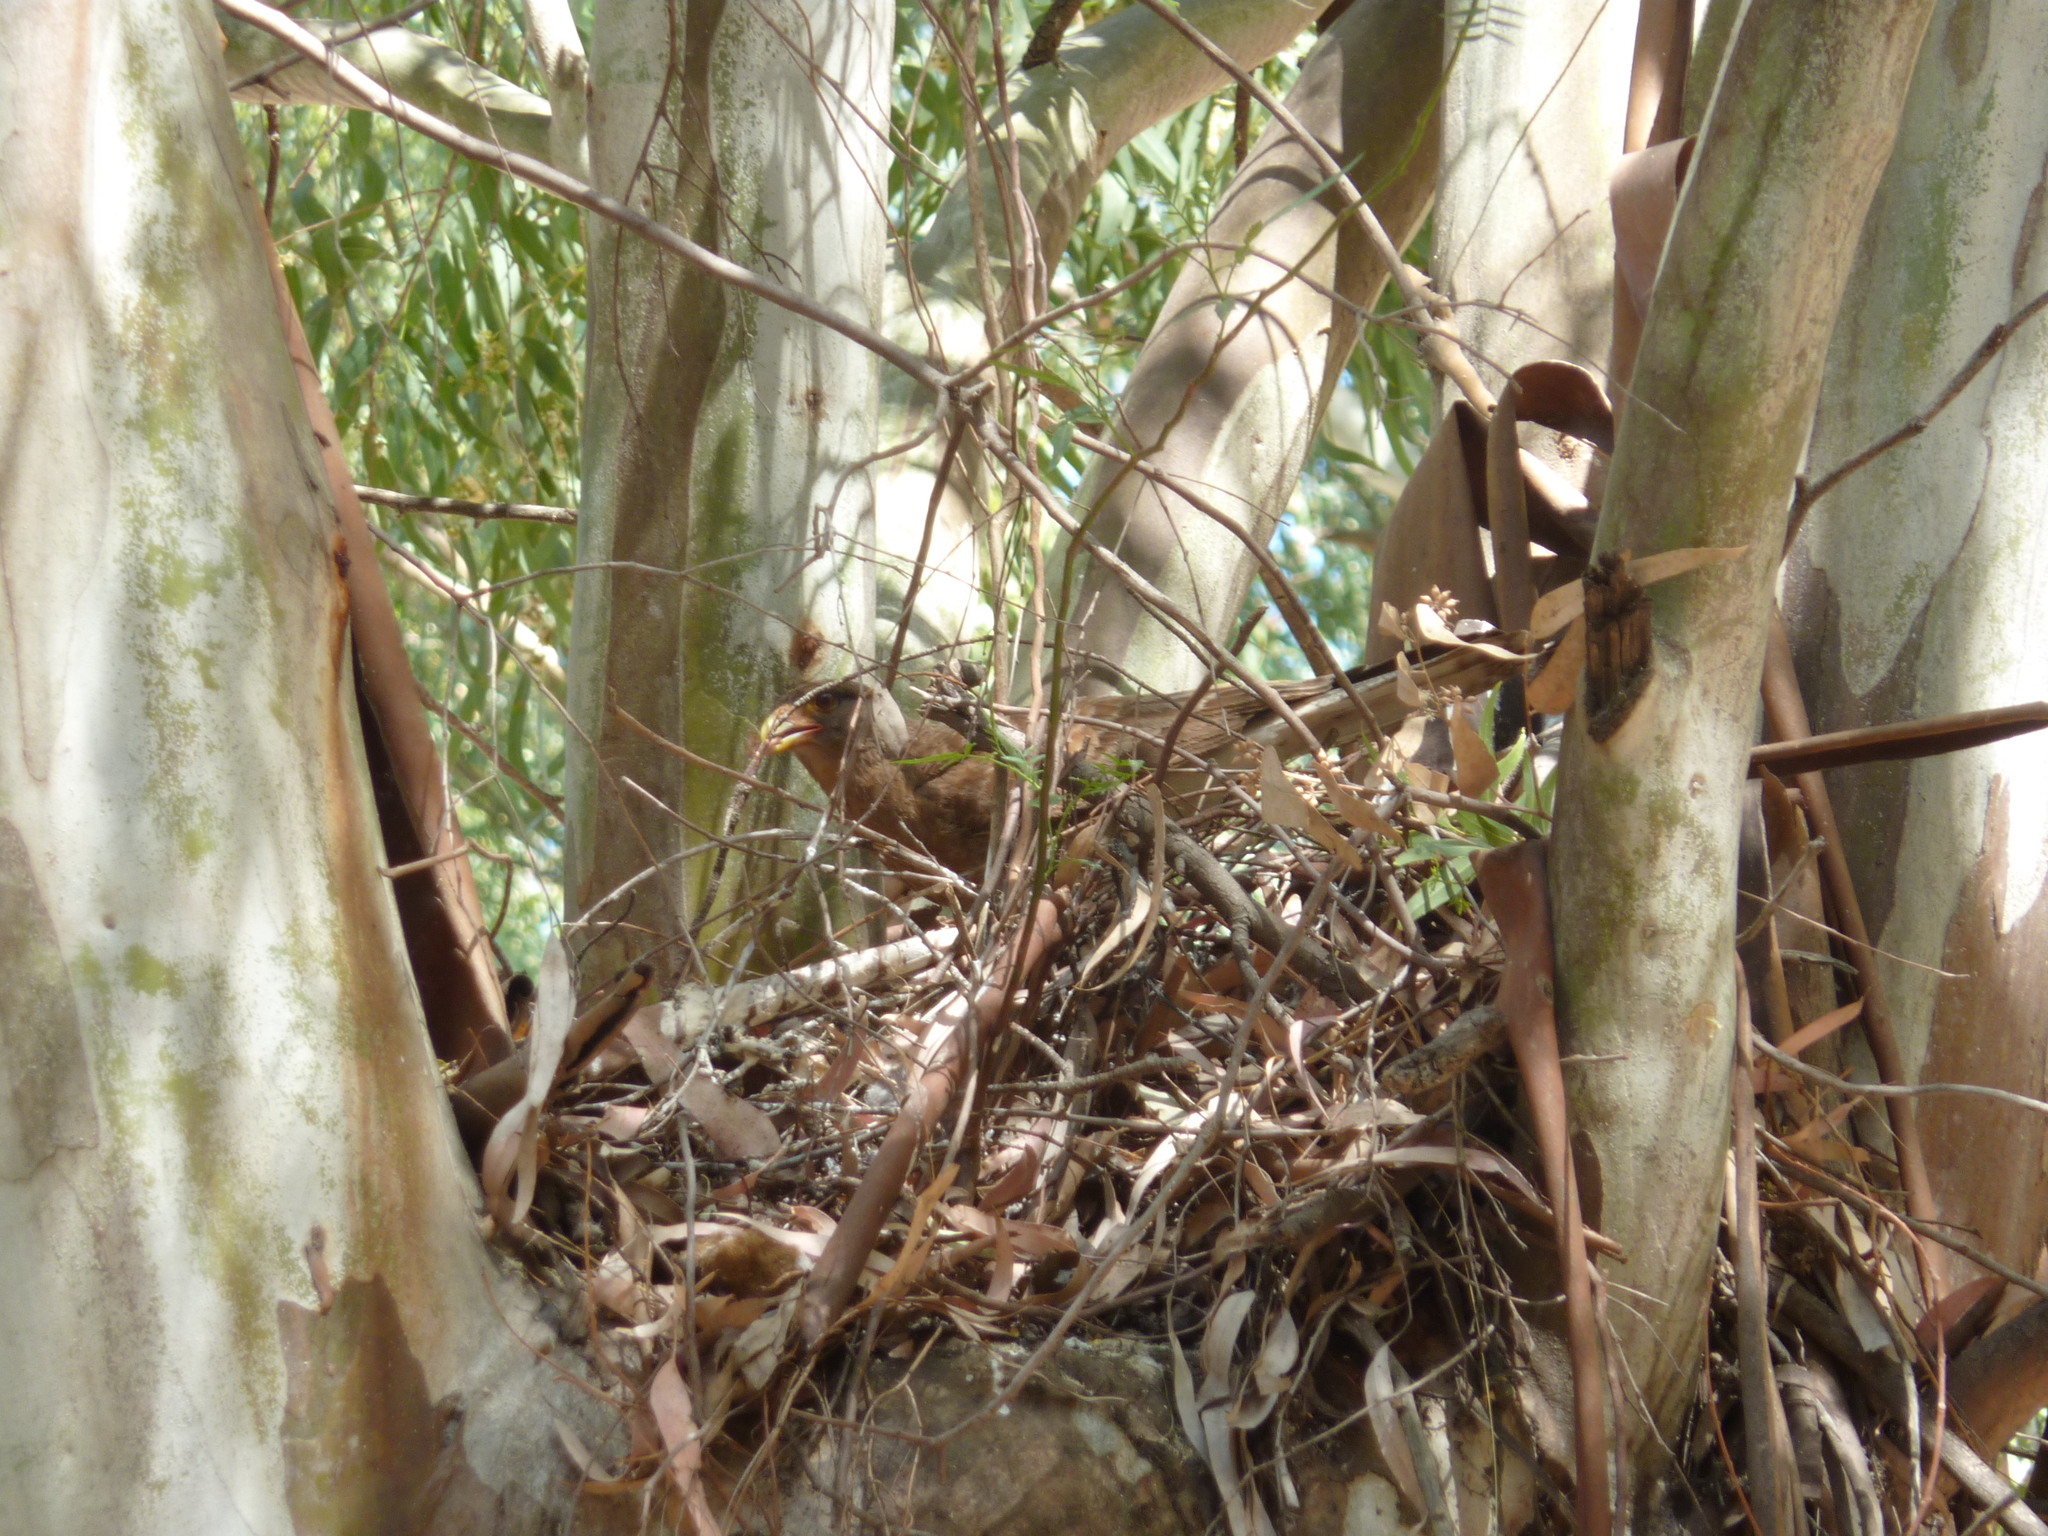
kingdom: Animalia
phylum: Chordata
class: Aves
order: Falconiformes
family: Falconidae
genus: Daptrius
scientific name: Daptrius
